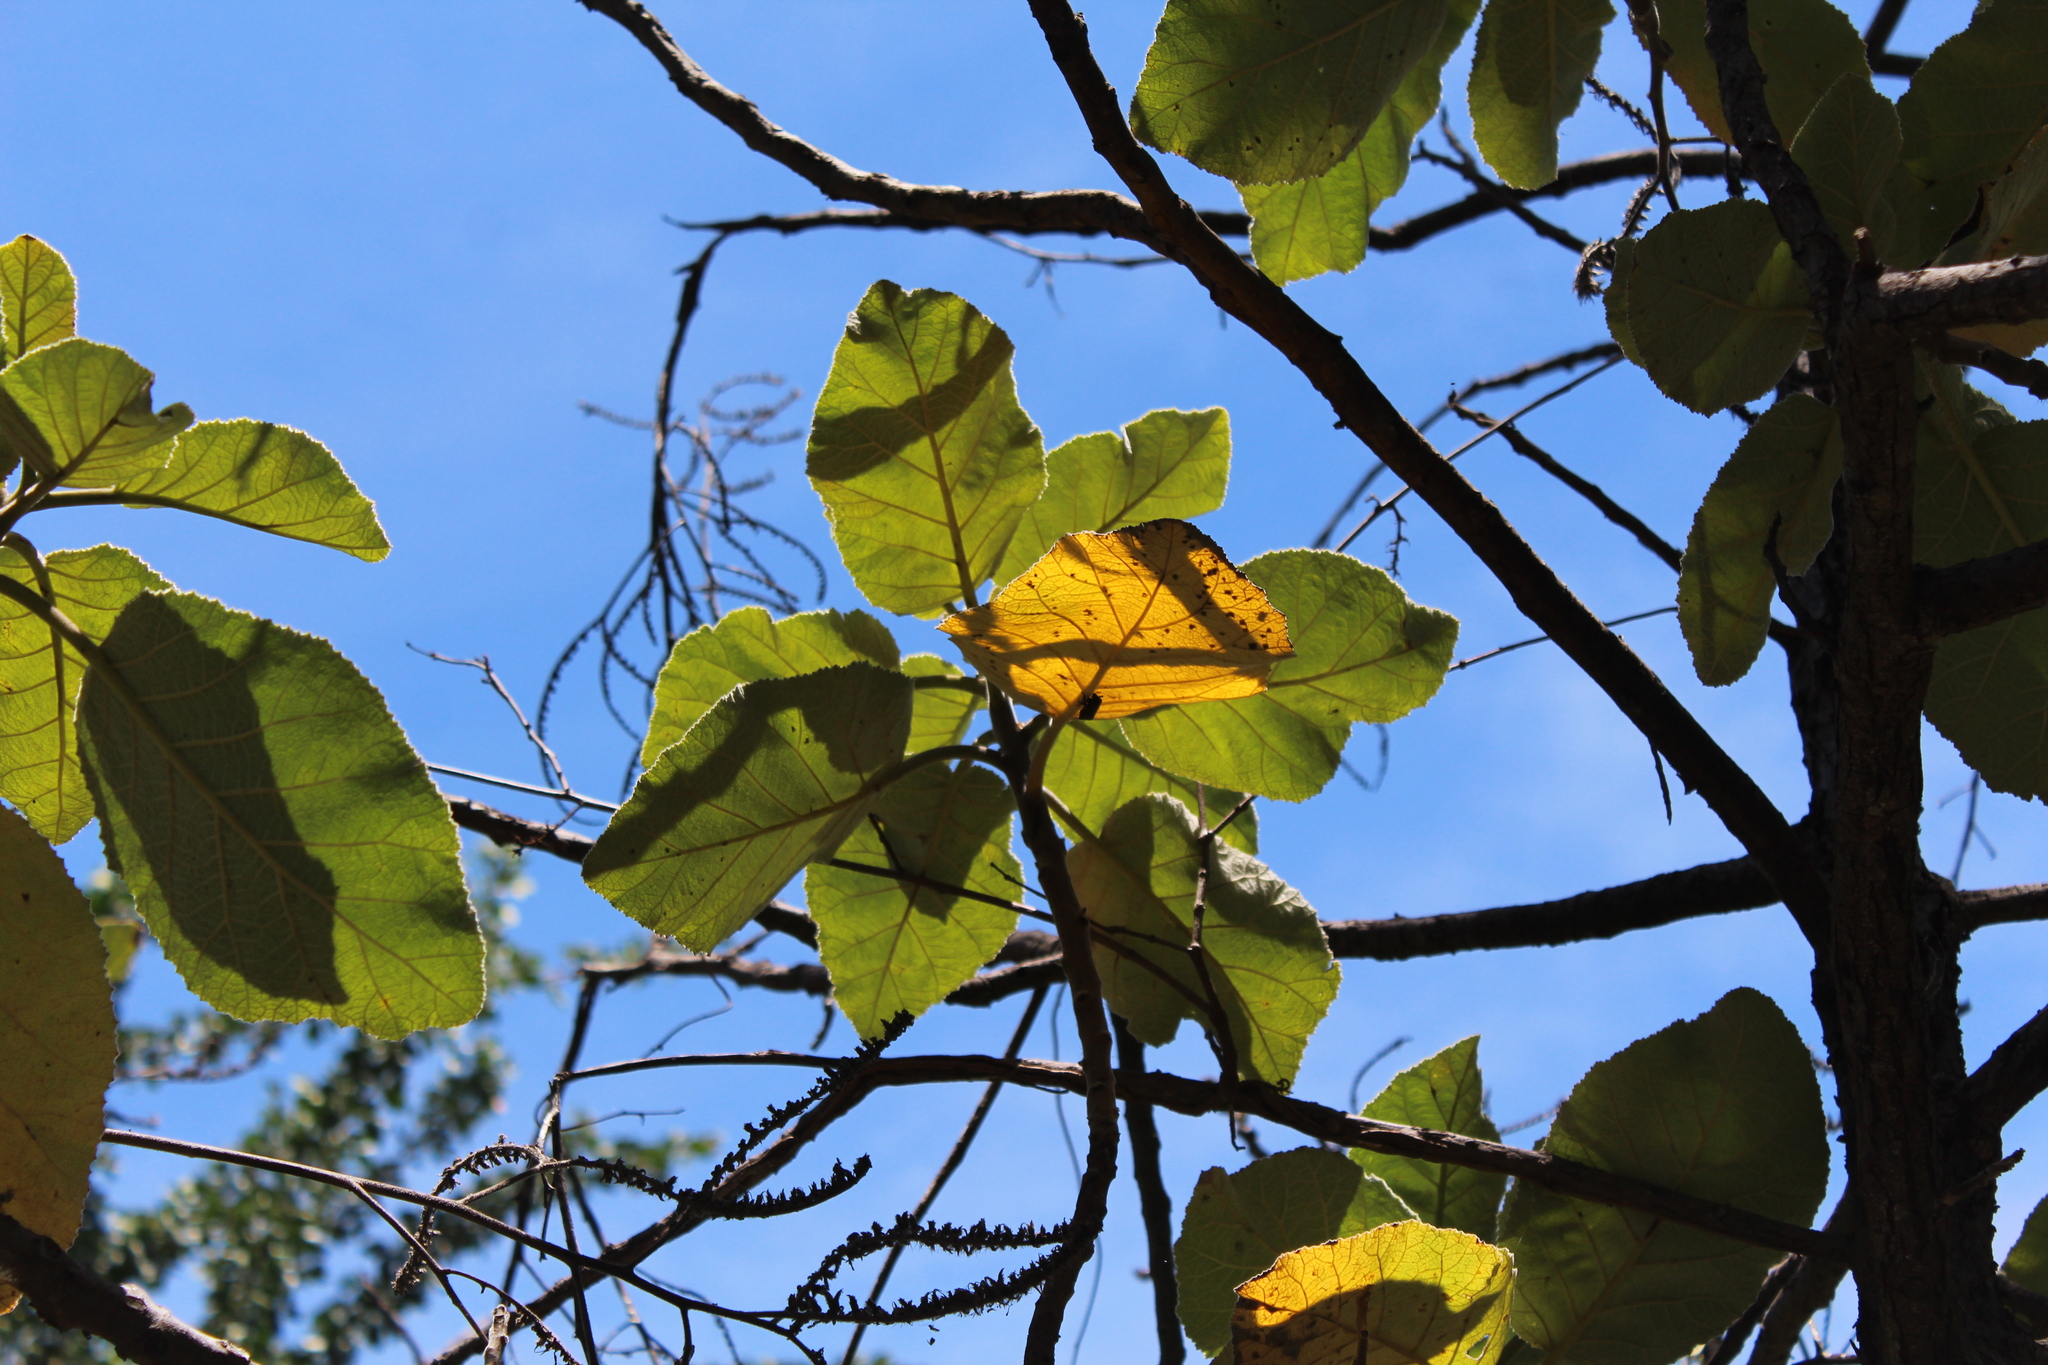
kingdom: Plantae
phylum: Tracheophyta
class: Magnoliopsida
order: Boraginales
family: Namaceae
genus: Wigandia
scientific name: Wigandia urens
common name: Caracus wigandia
